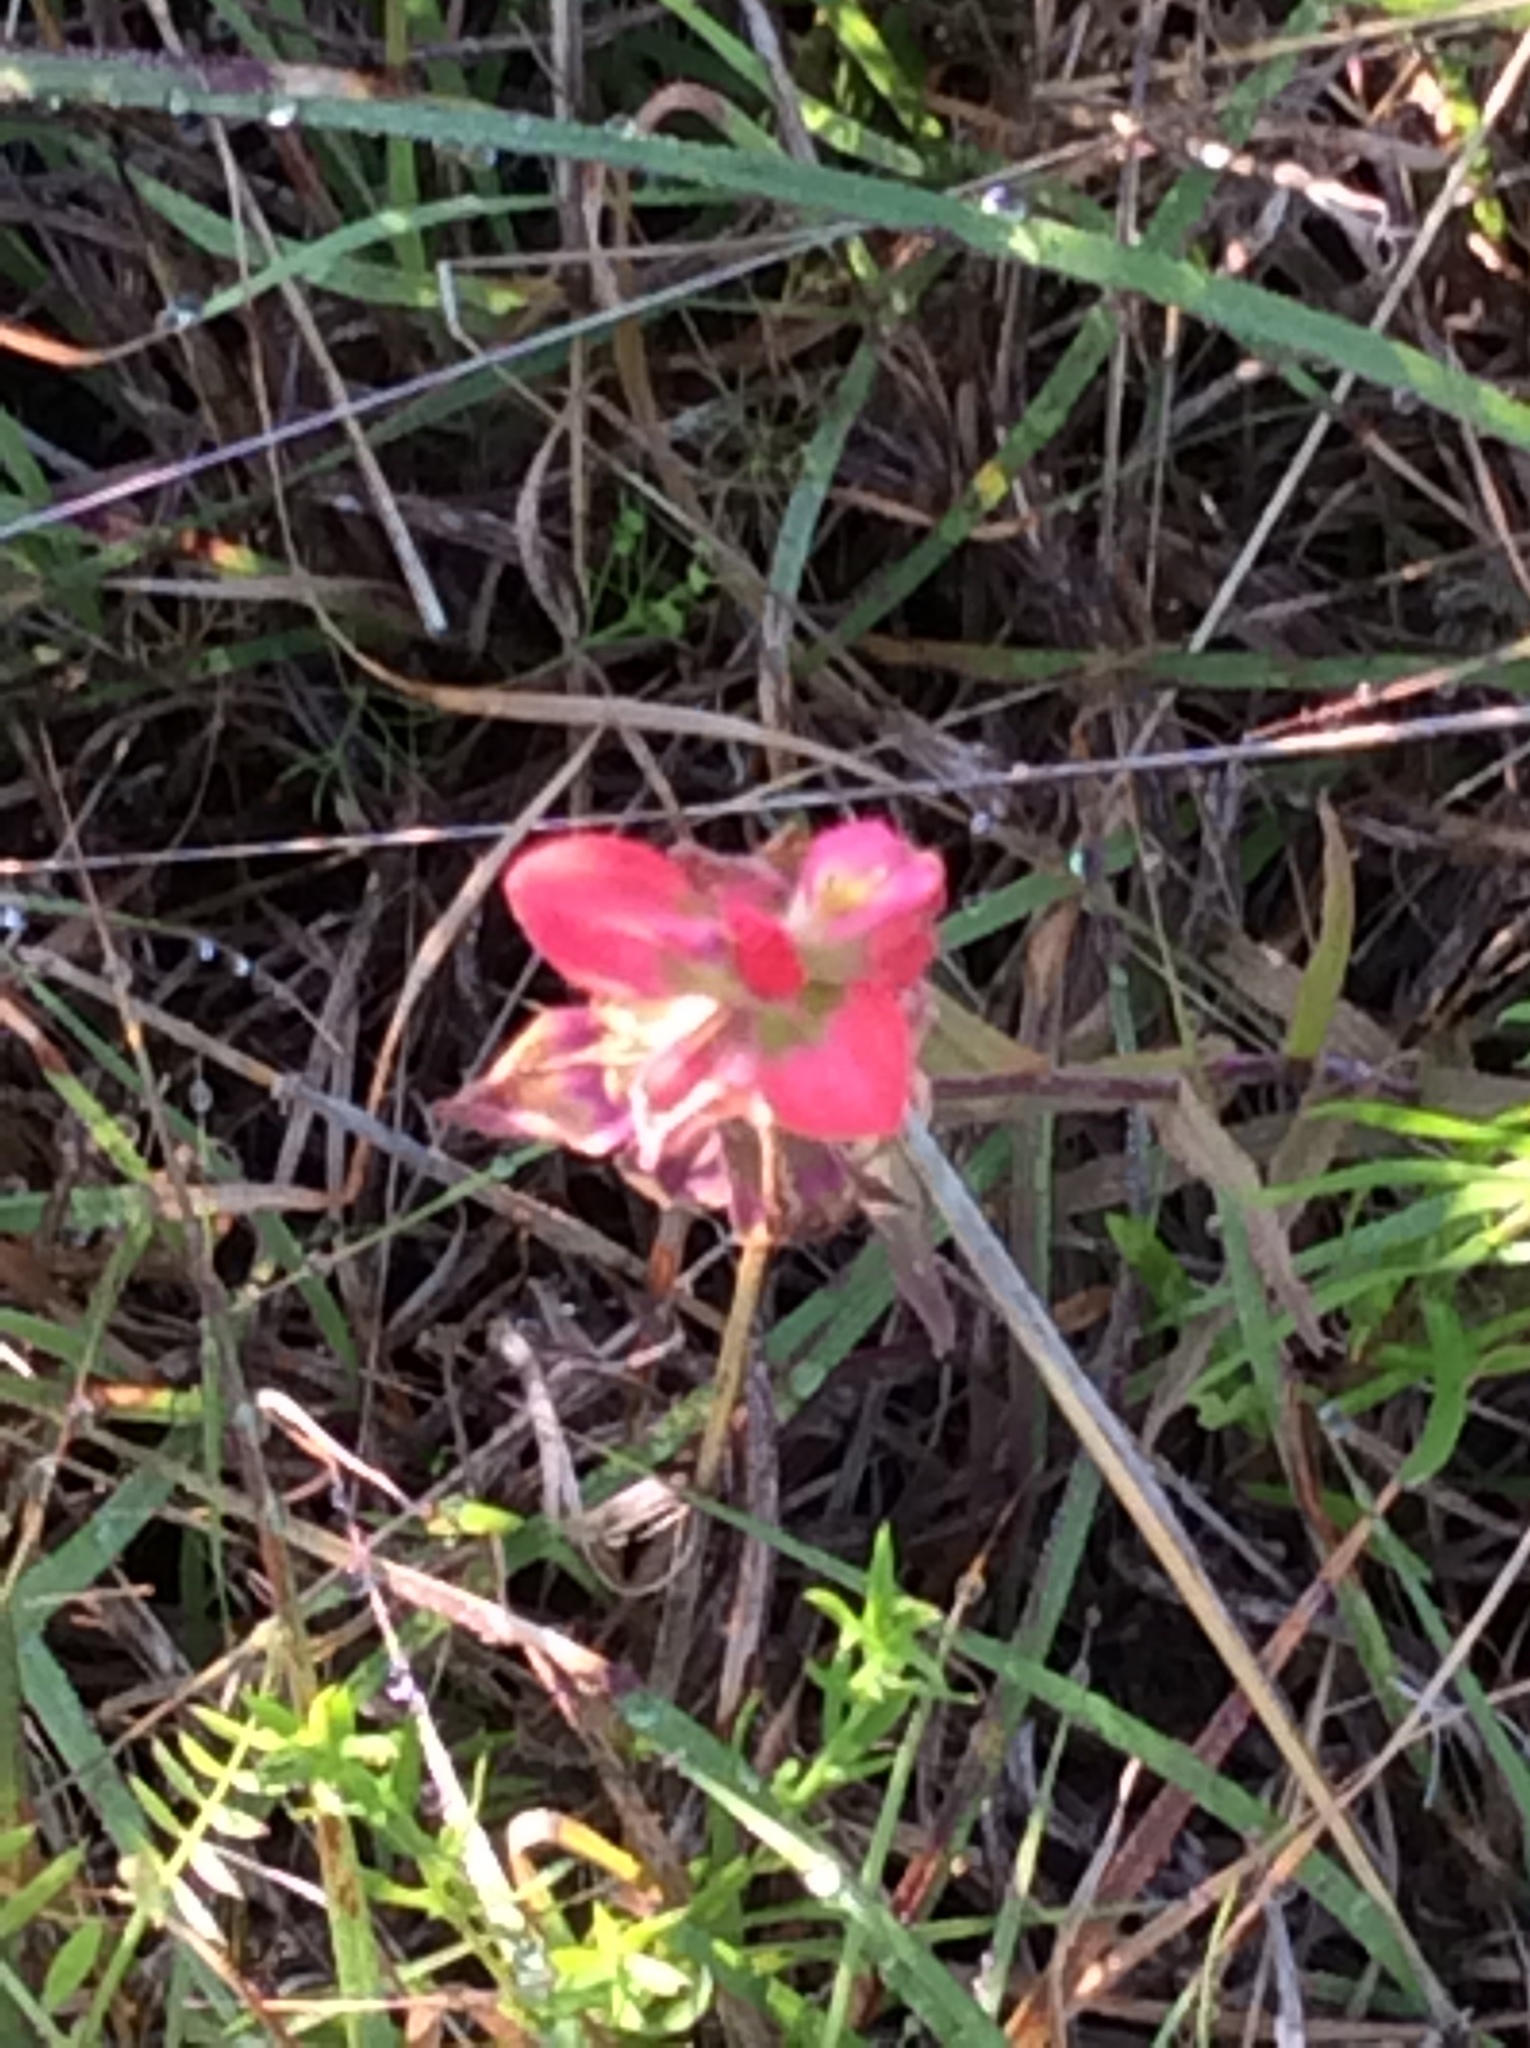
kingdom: Plantae
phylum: Tracheophyta
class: Magnoliopsida
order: Lamiales
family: Orobanchaceae
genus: Castilleja
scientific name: Castilleja indivisa
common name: Texas paintbrush
